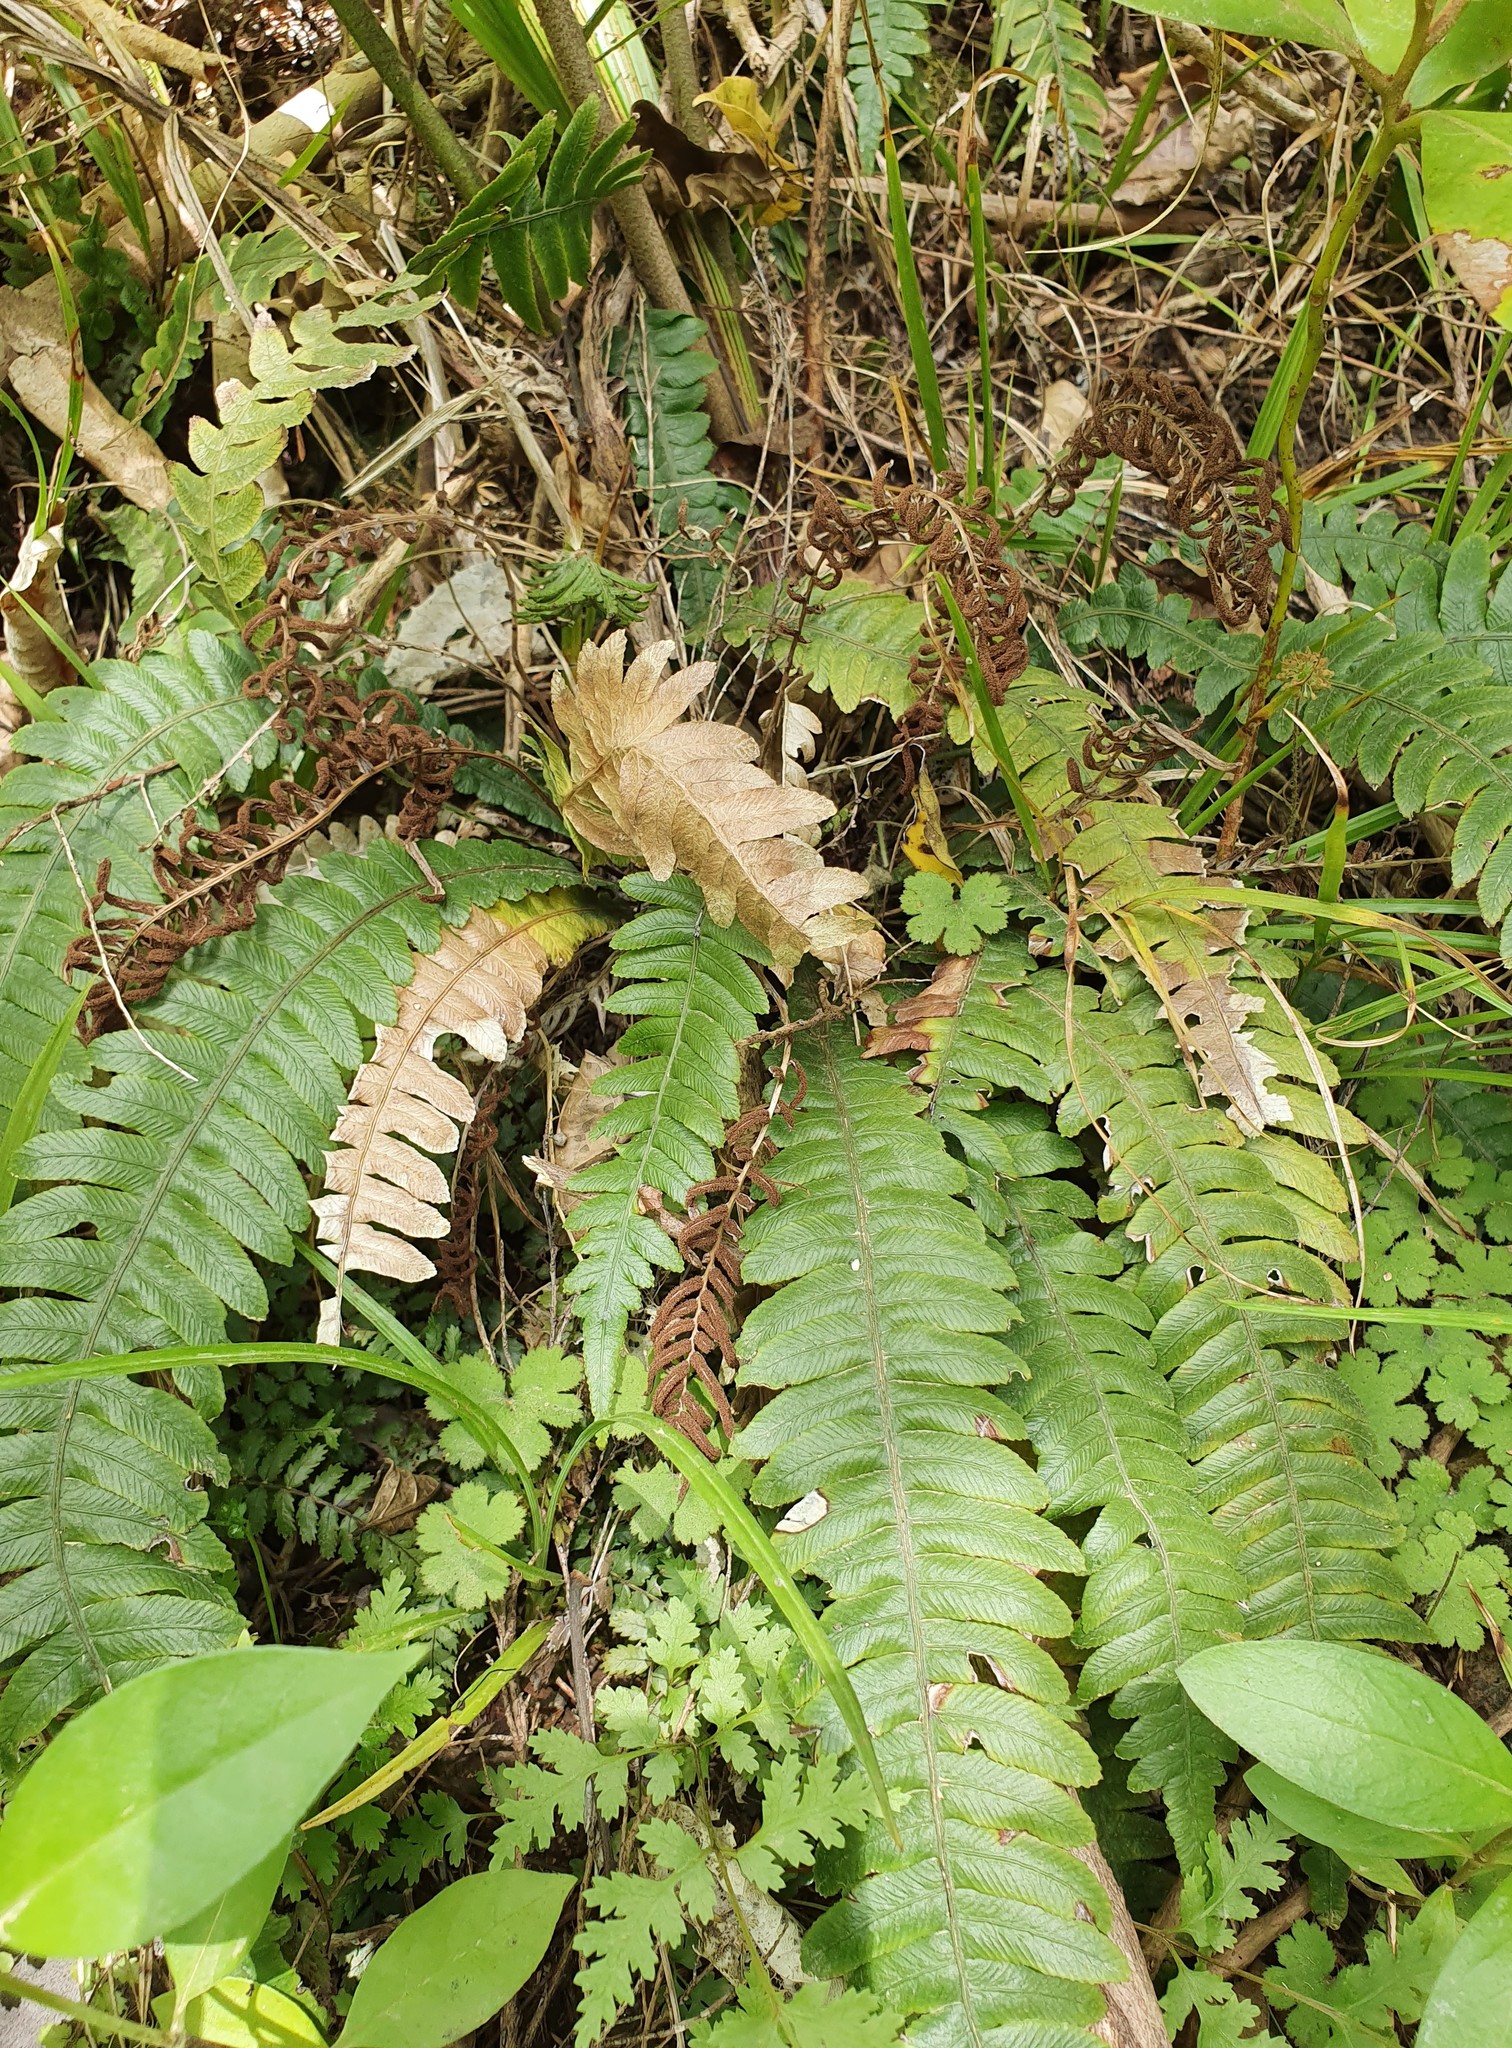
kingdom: Plantae
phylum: Tracheophyta
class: Polypodiopsida
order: Polypodiales
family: Blechnaceae
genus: Austroblechnum
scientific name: Austroblechnum lanceolatum
